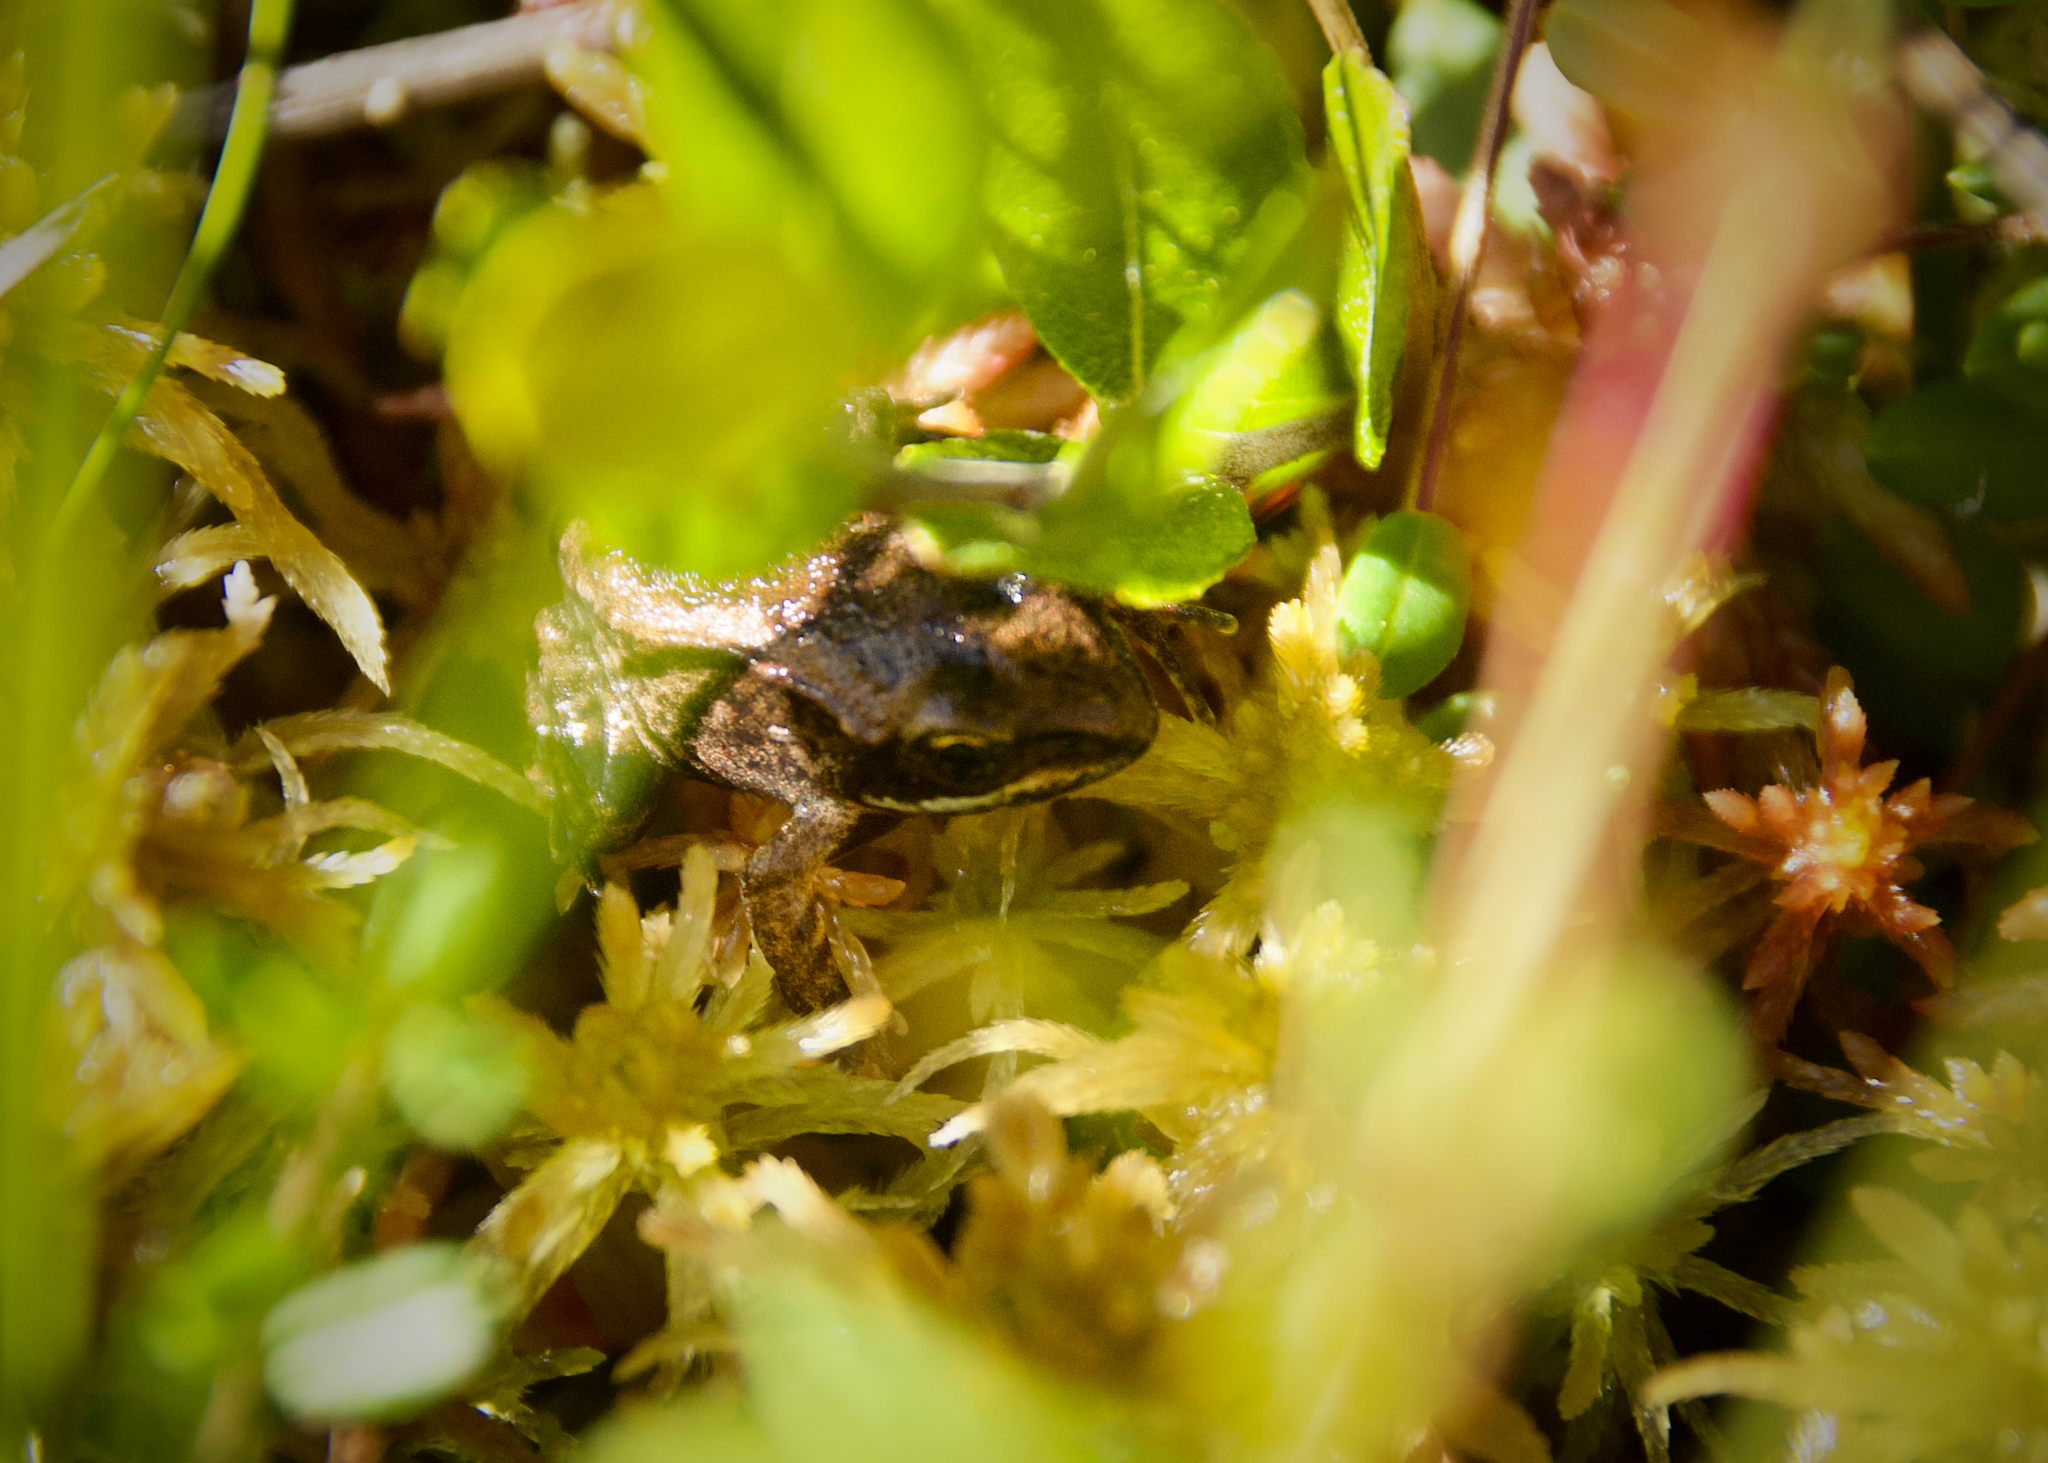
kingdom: Animalia
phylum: Chordata
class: Amphibia
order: Anura
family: Ranidae
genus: Lithobates
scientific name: Lithobates sylvaticus
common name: Wood frog
